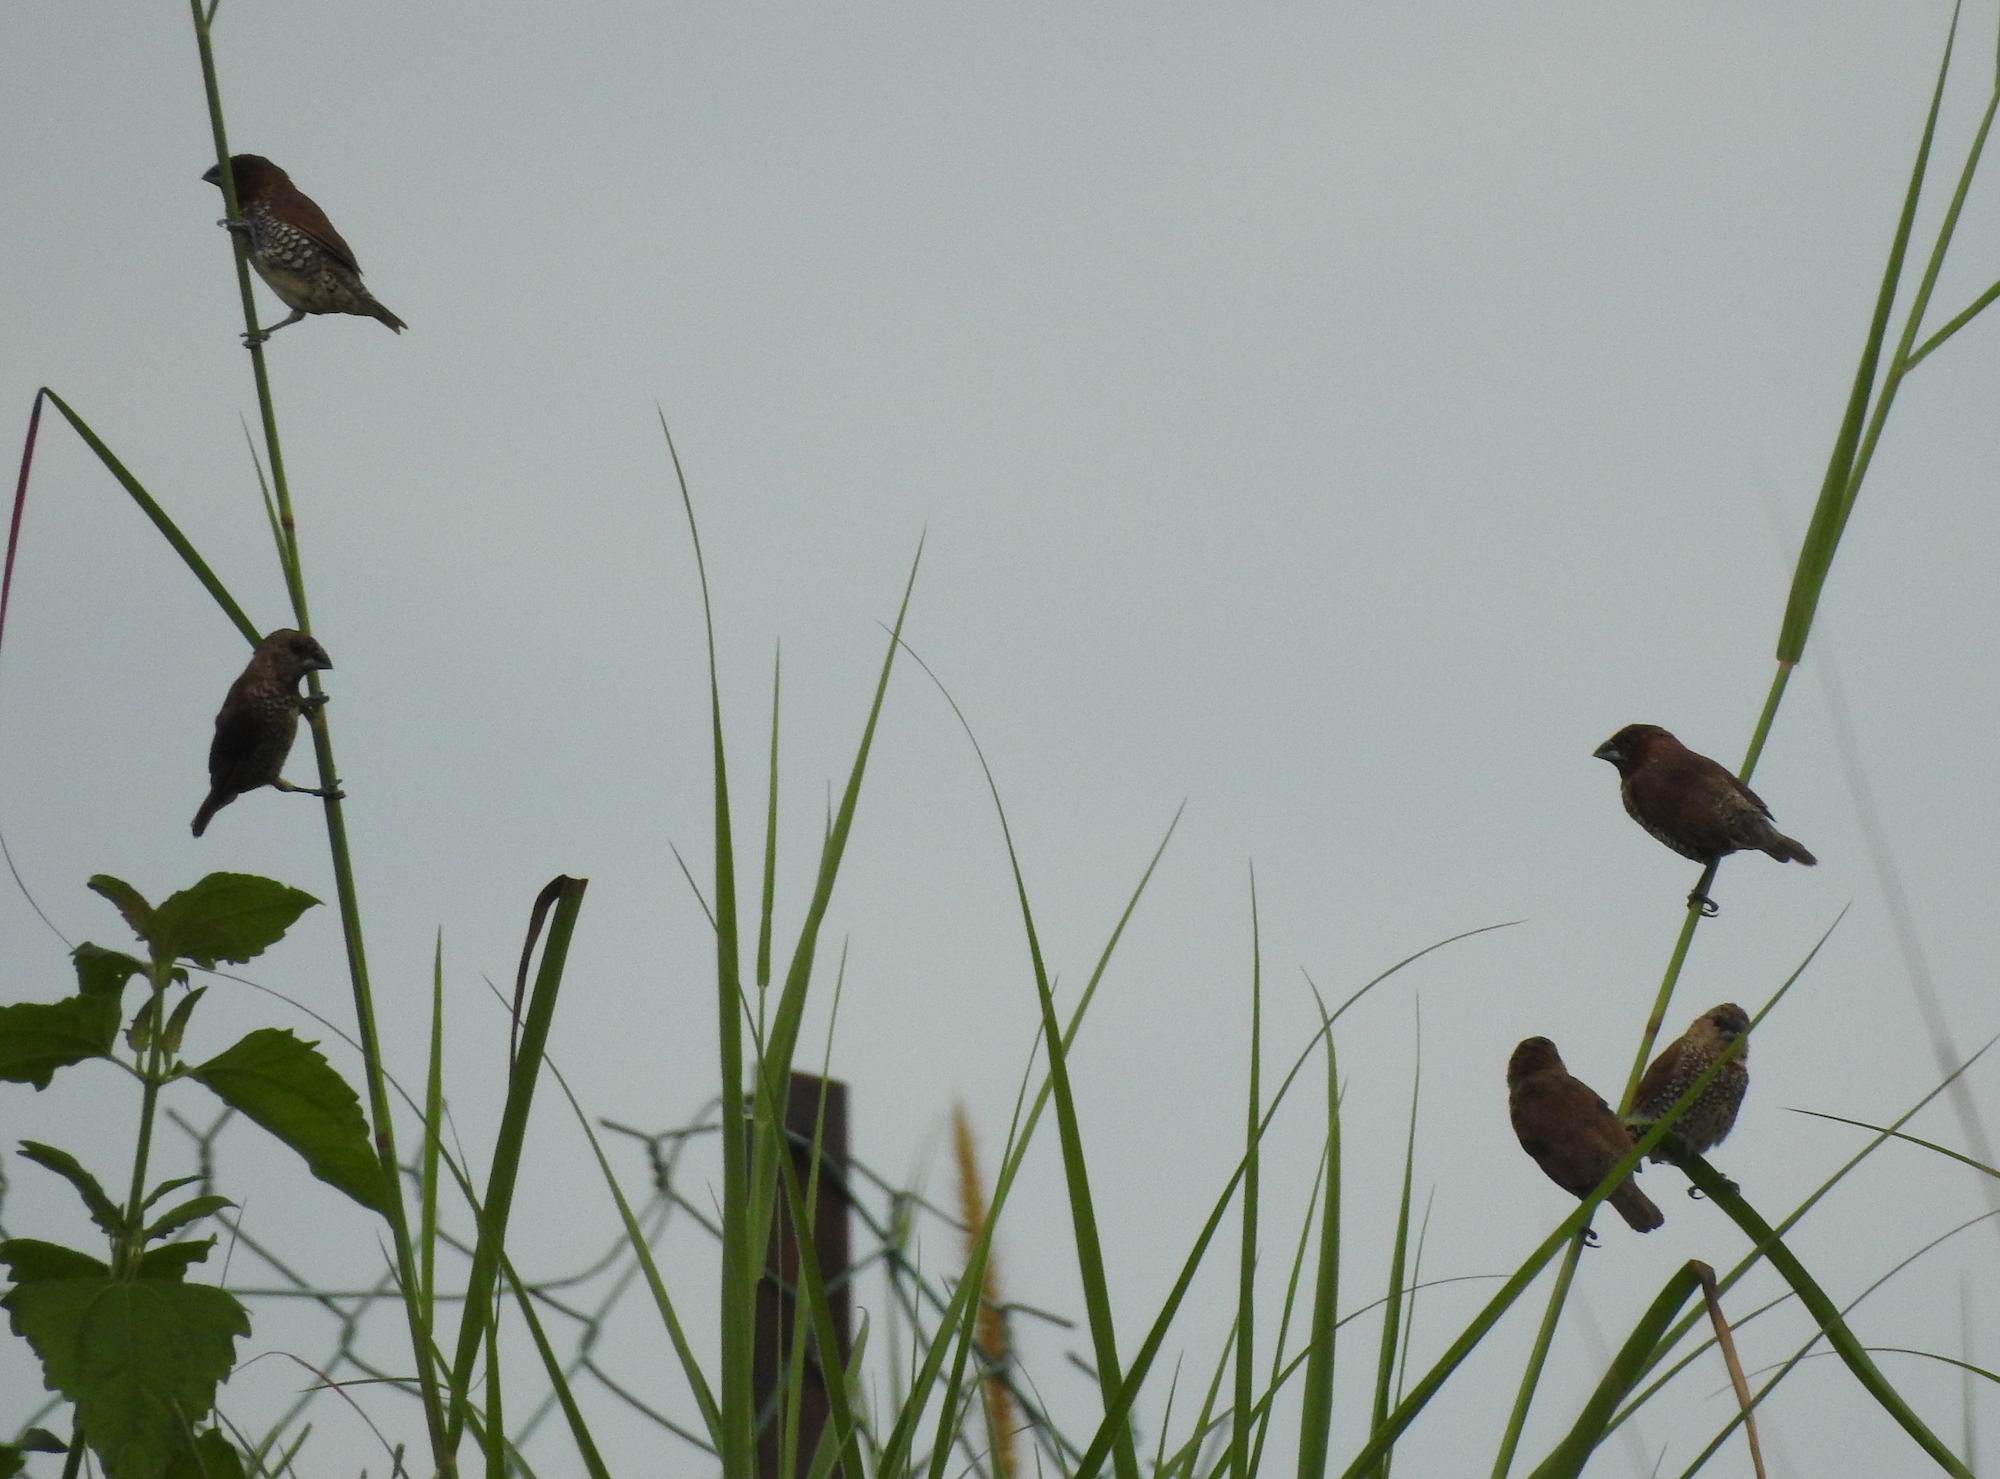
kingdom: Animalia
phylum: Chordata
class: Aves
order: Passeriformes
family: Estrildidae
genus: Lonchura
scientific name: Lonchura punctulata
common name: Scaly-breasted munia
